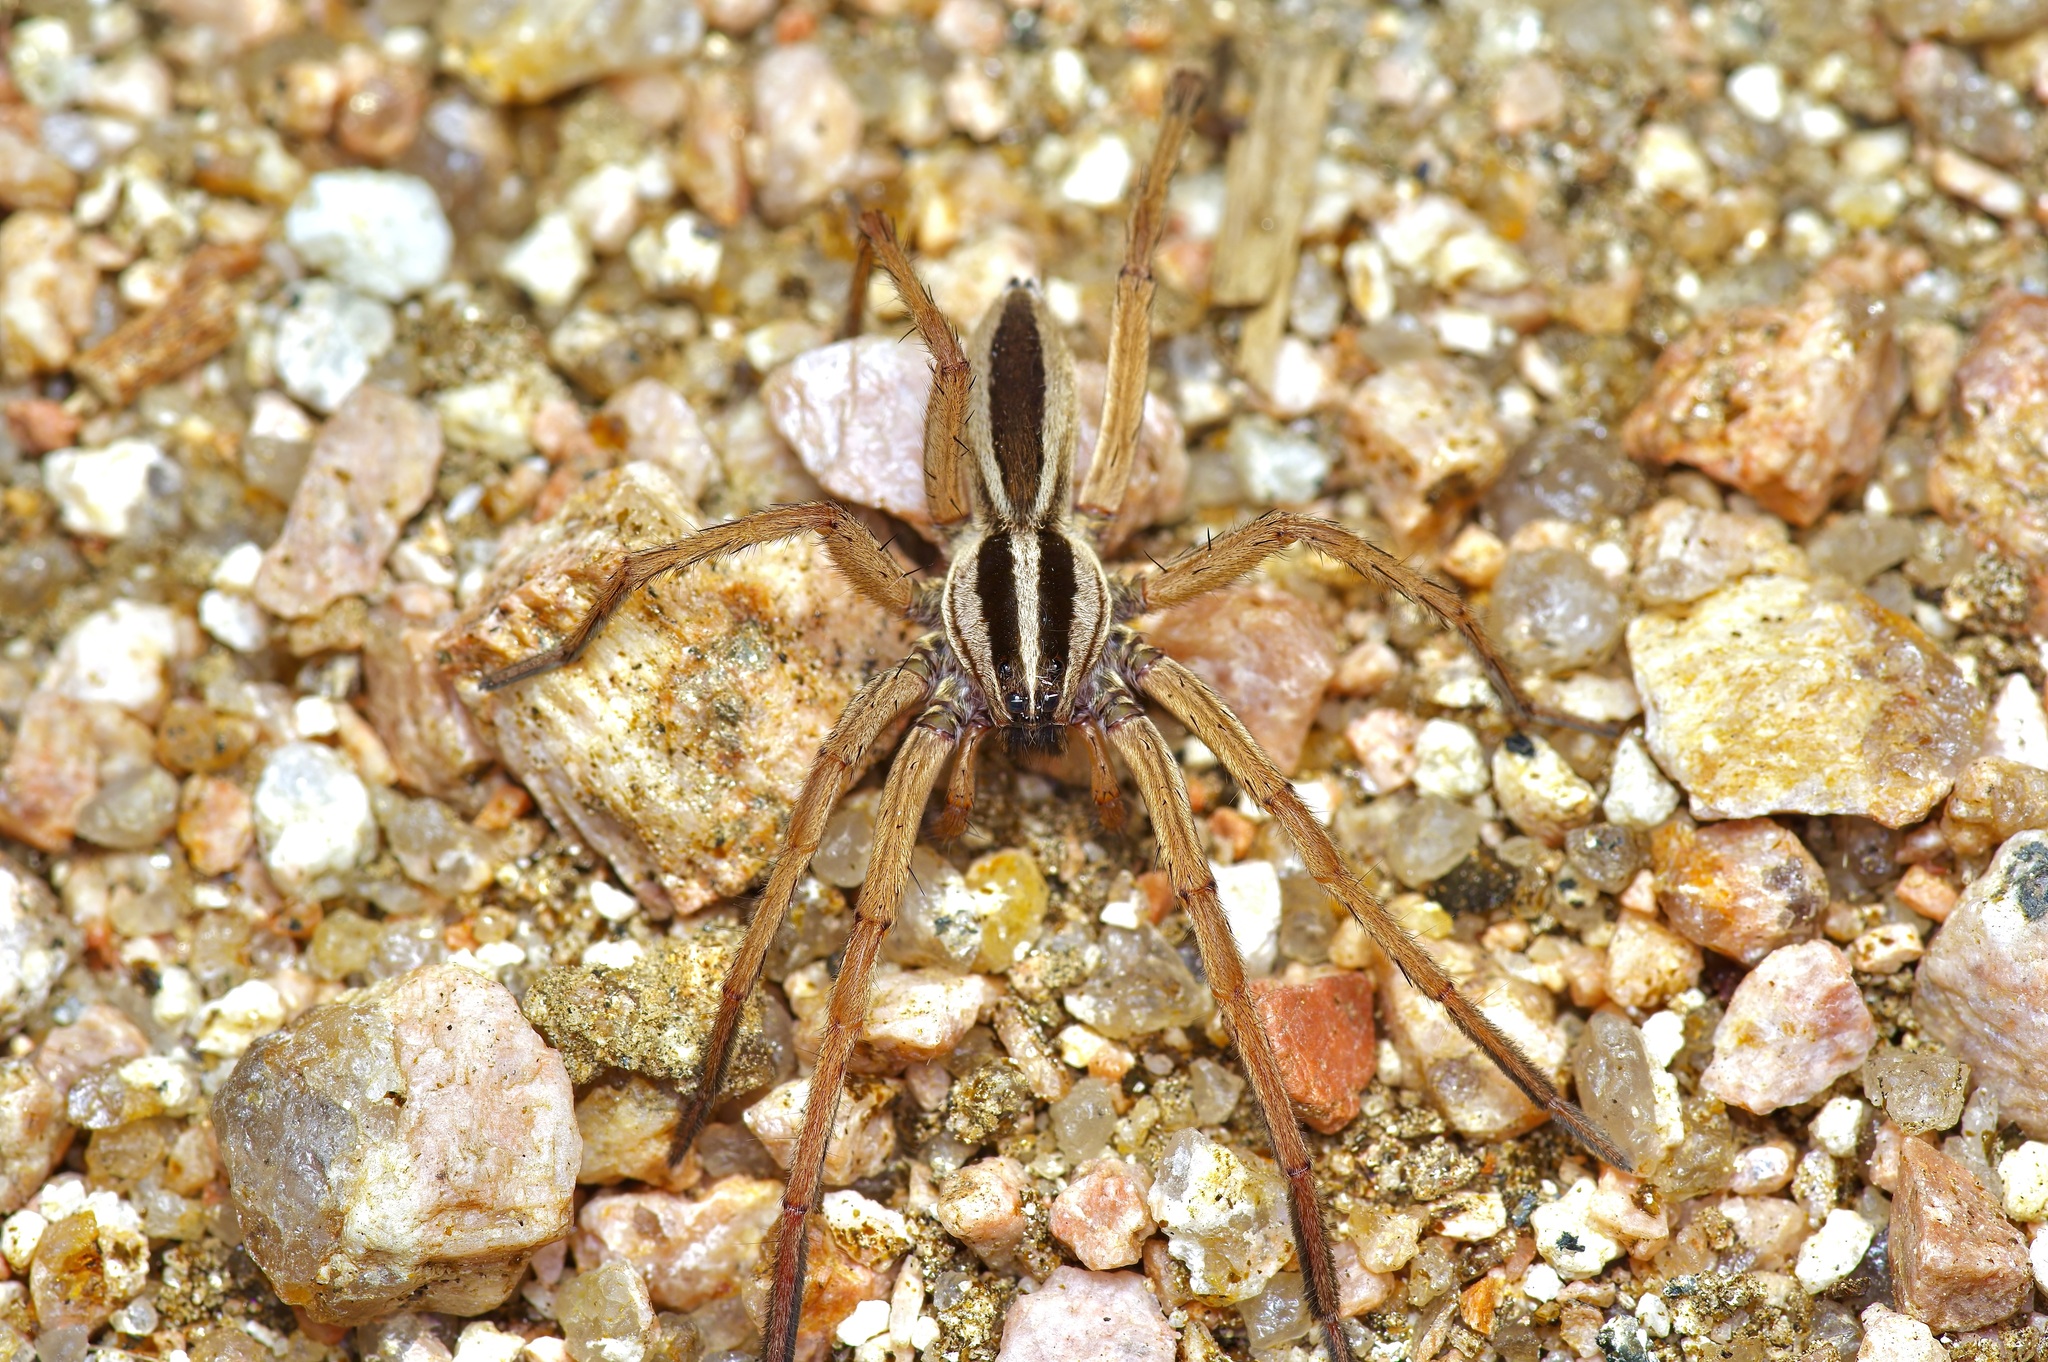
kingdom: Animalia
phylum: Arthropoda
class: Arachnida
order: Araneae
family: Lycosidae
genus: Rabidosa
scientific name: Rabidosa punctulata
